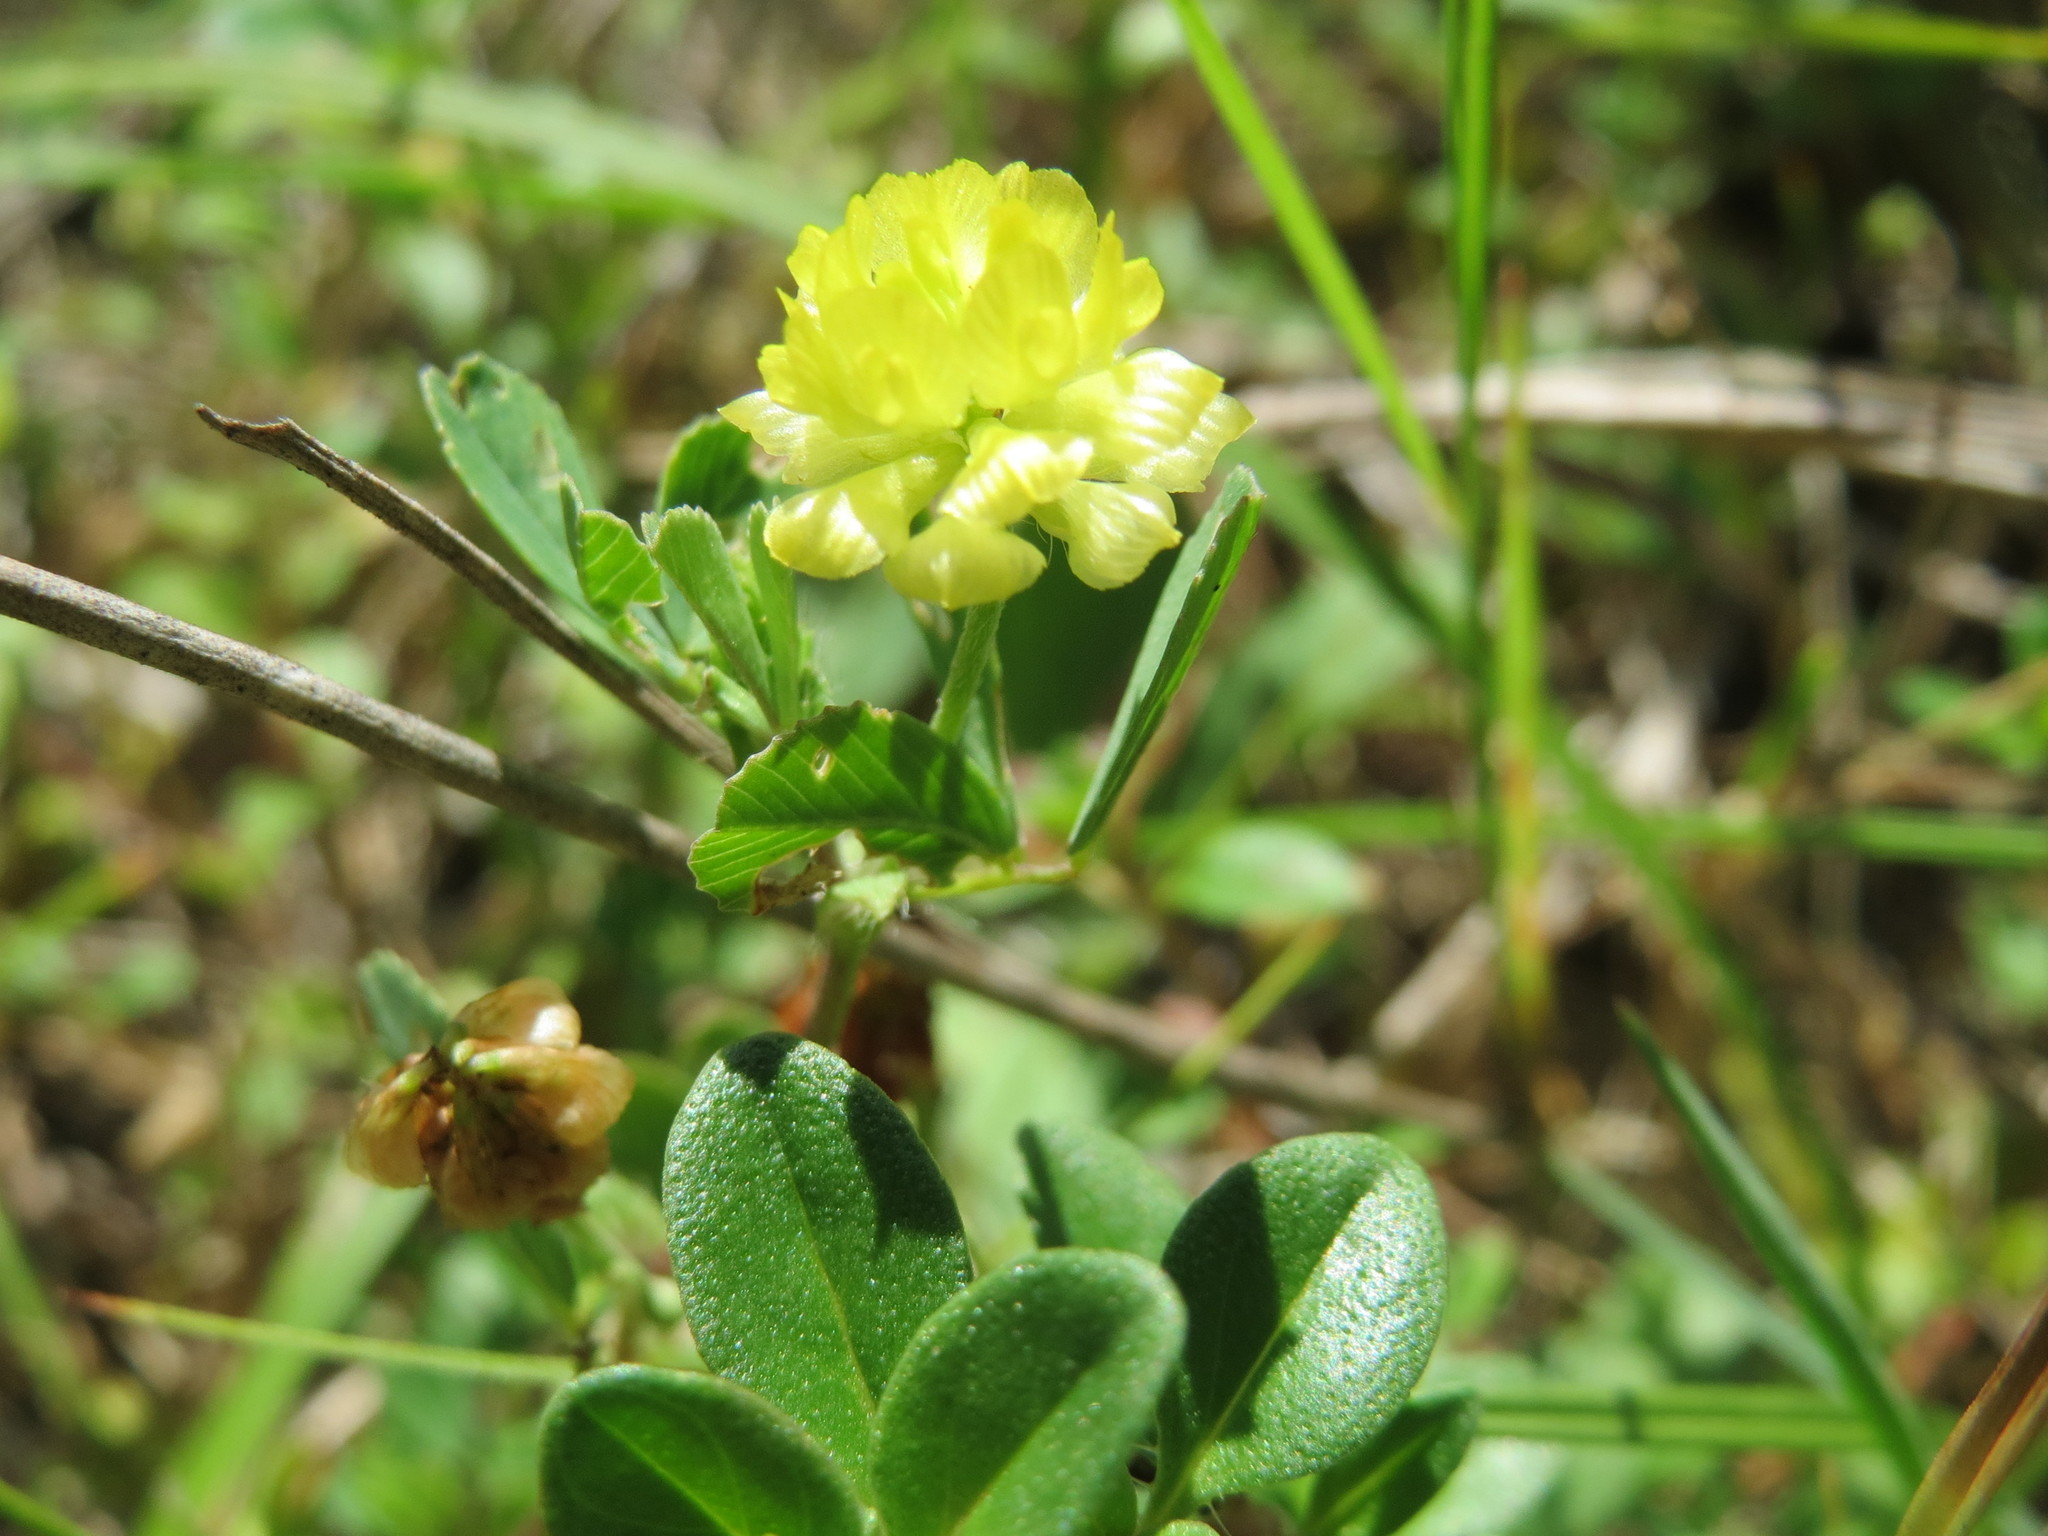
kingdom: Plantae
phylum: Tracheophyta
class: Magnoliopsida
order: Fabales
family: Fabaceae
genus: Trifolium
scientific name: Trifolium campestre
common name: Field clover
